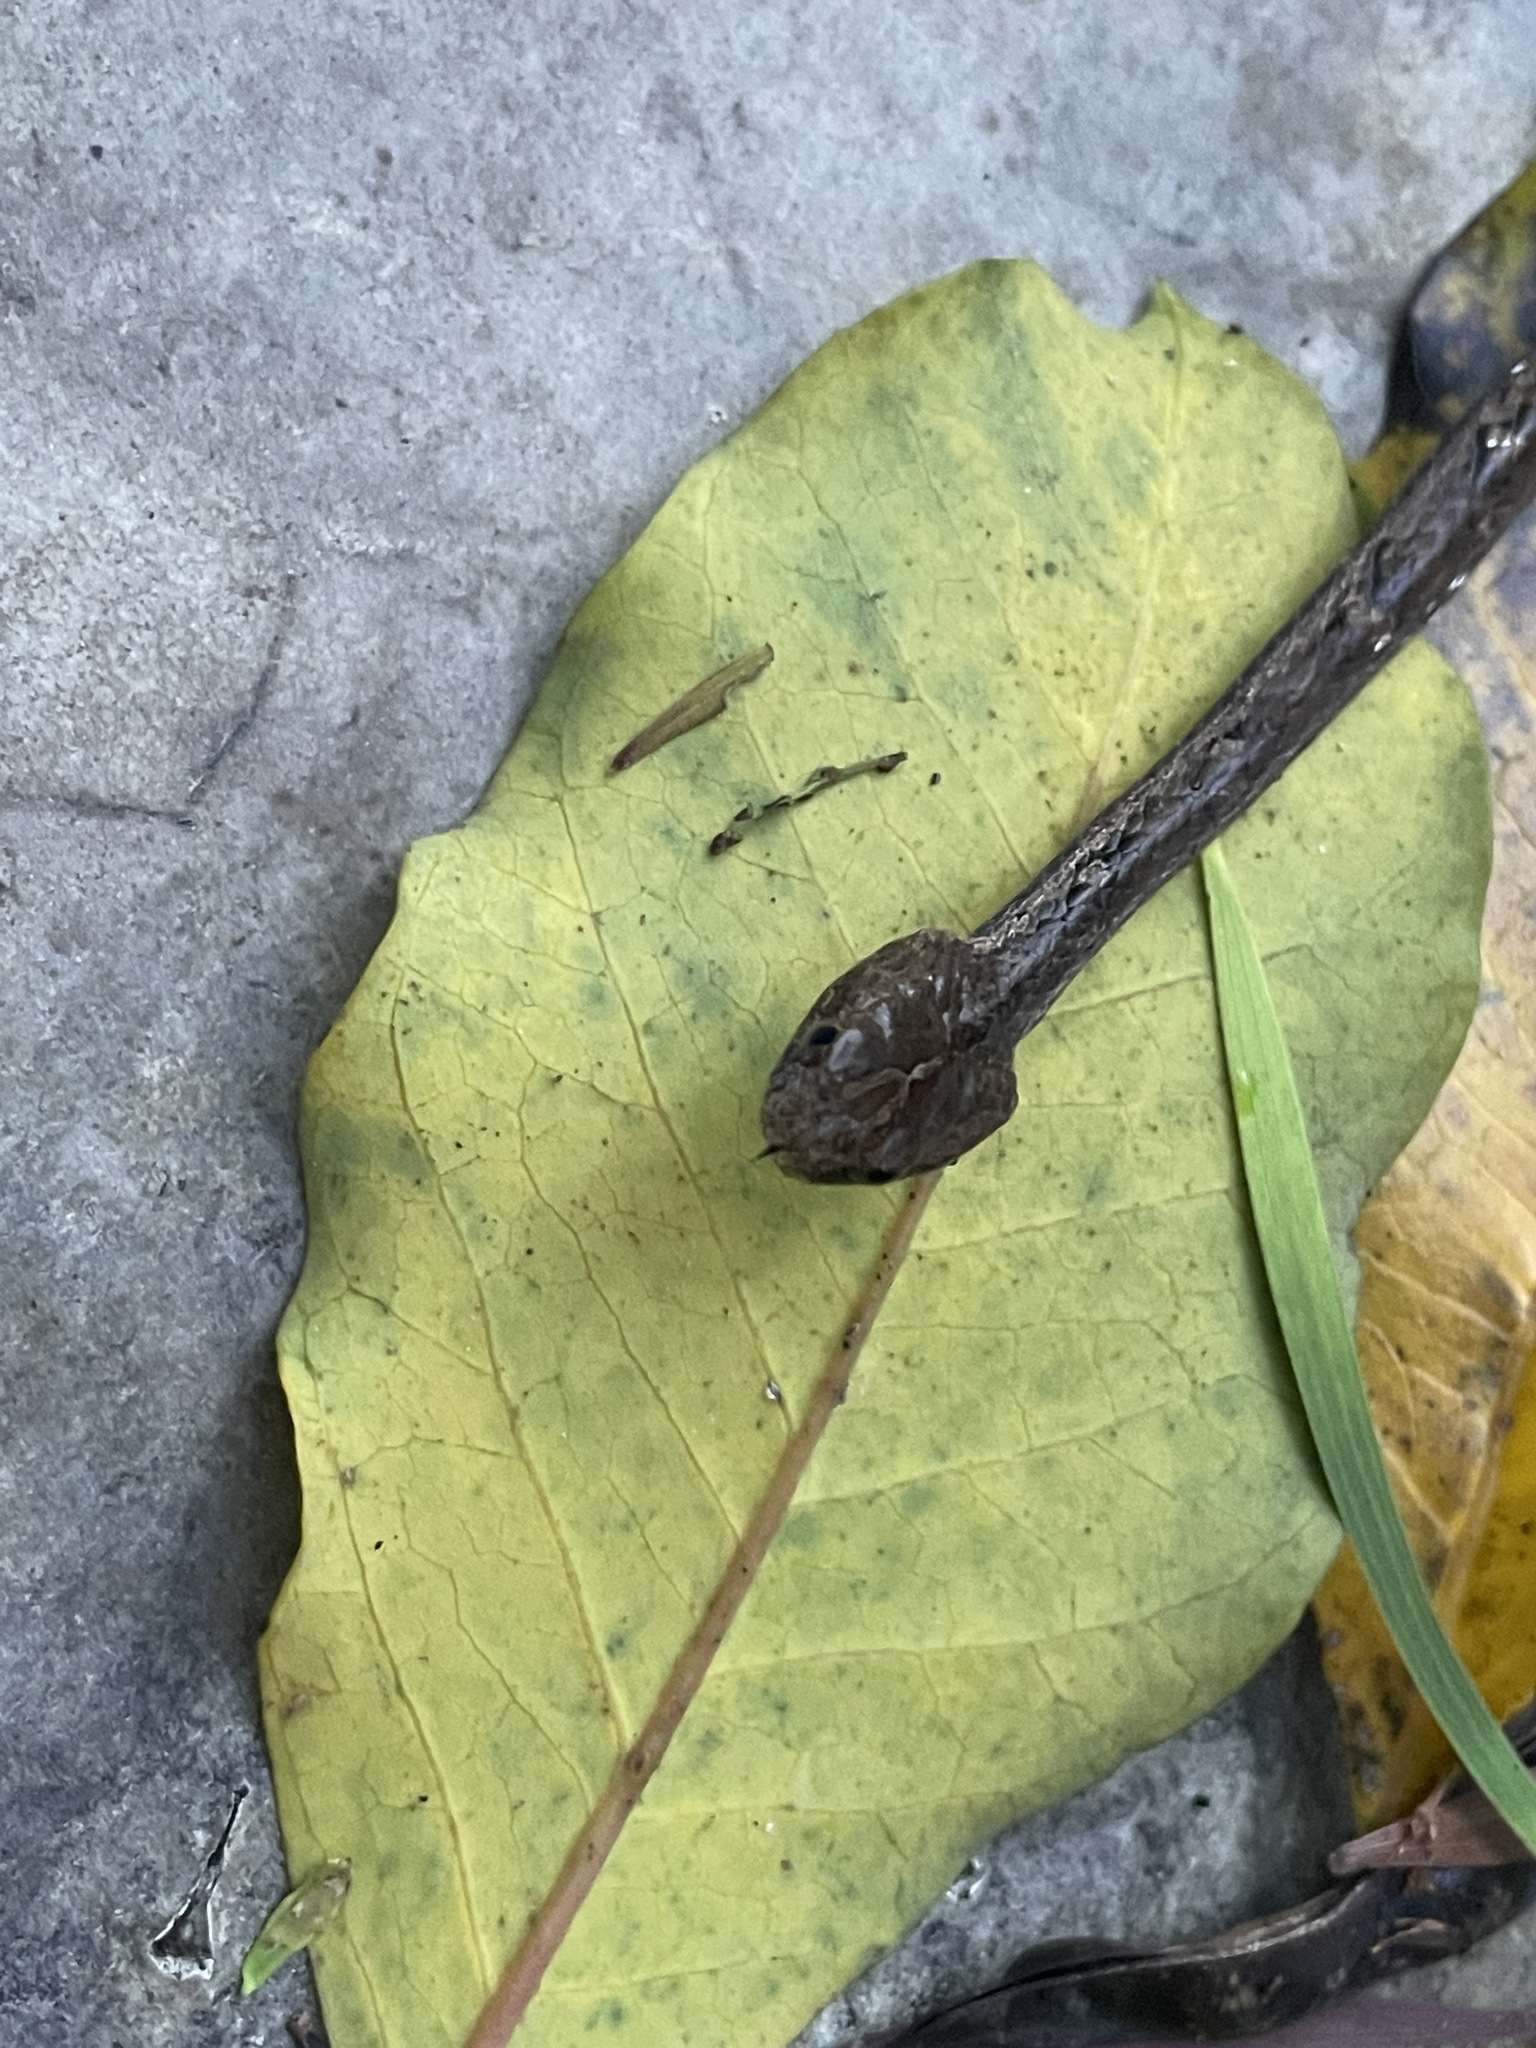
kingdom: Animalia
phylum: Chordata
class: Squamata
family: Pseudaspididae
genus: Psammodynastes
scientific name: Psammodynastes pulverulentus
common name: Common mock viper
